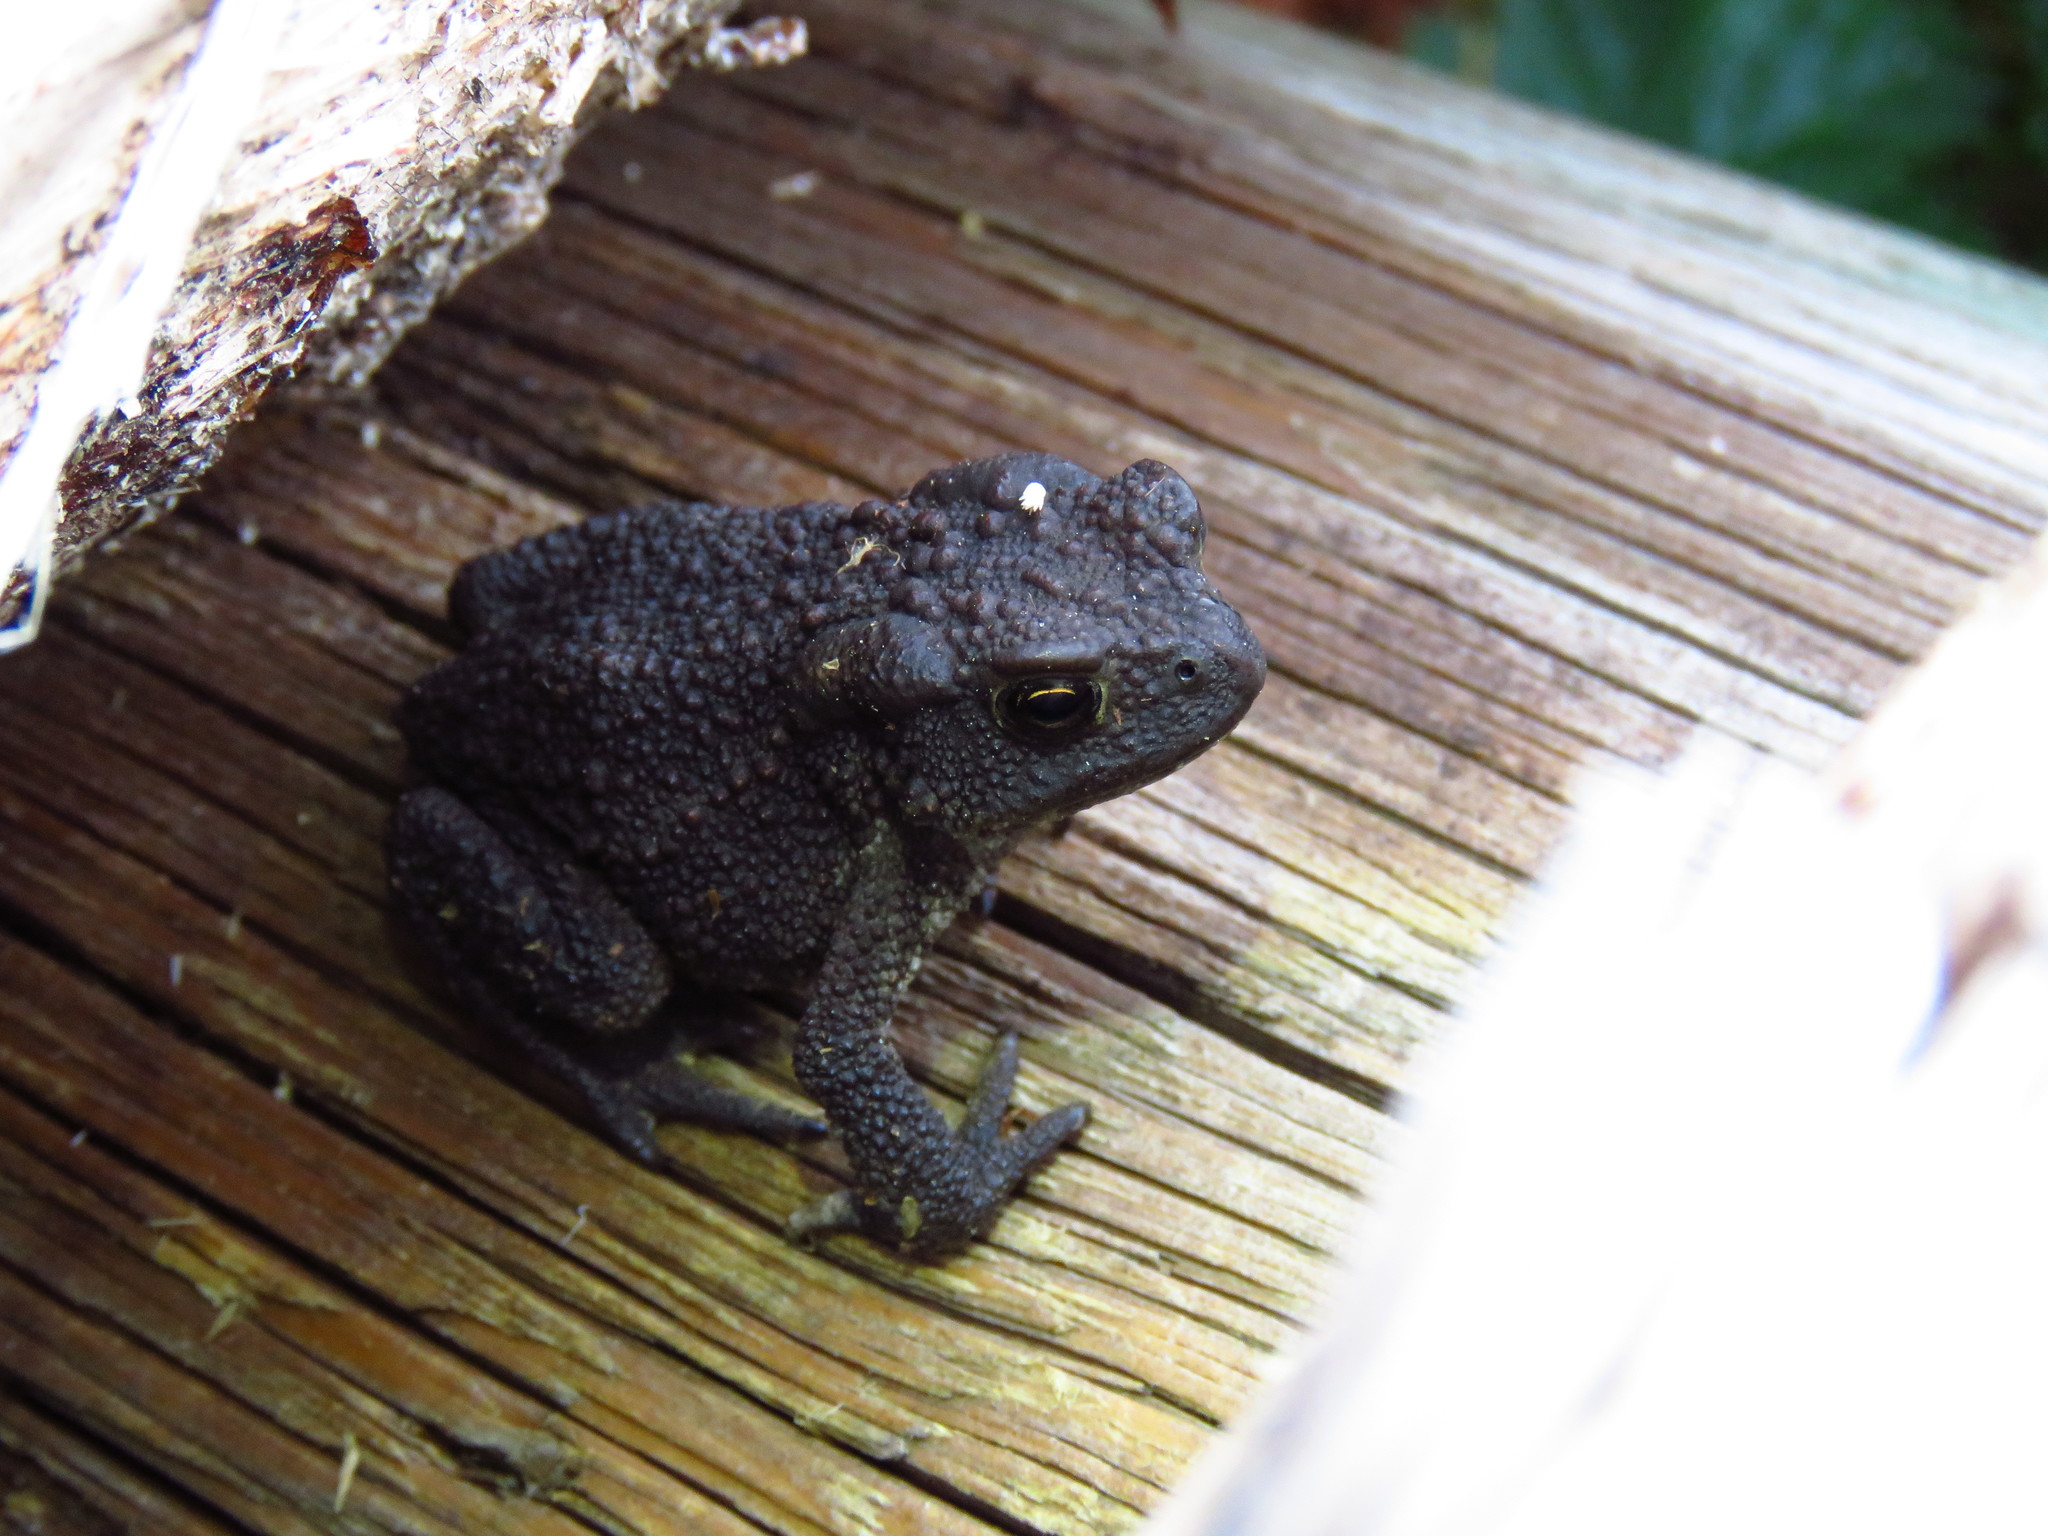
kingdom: Animalia
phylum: Chordata
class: Amphibia
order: Anura
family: Bufonidae
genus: Bufo
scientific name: Bufo bufo
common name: Common toad
